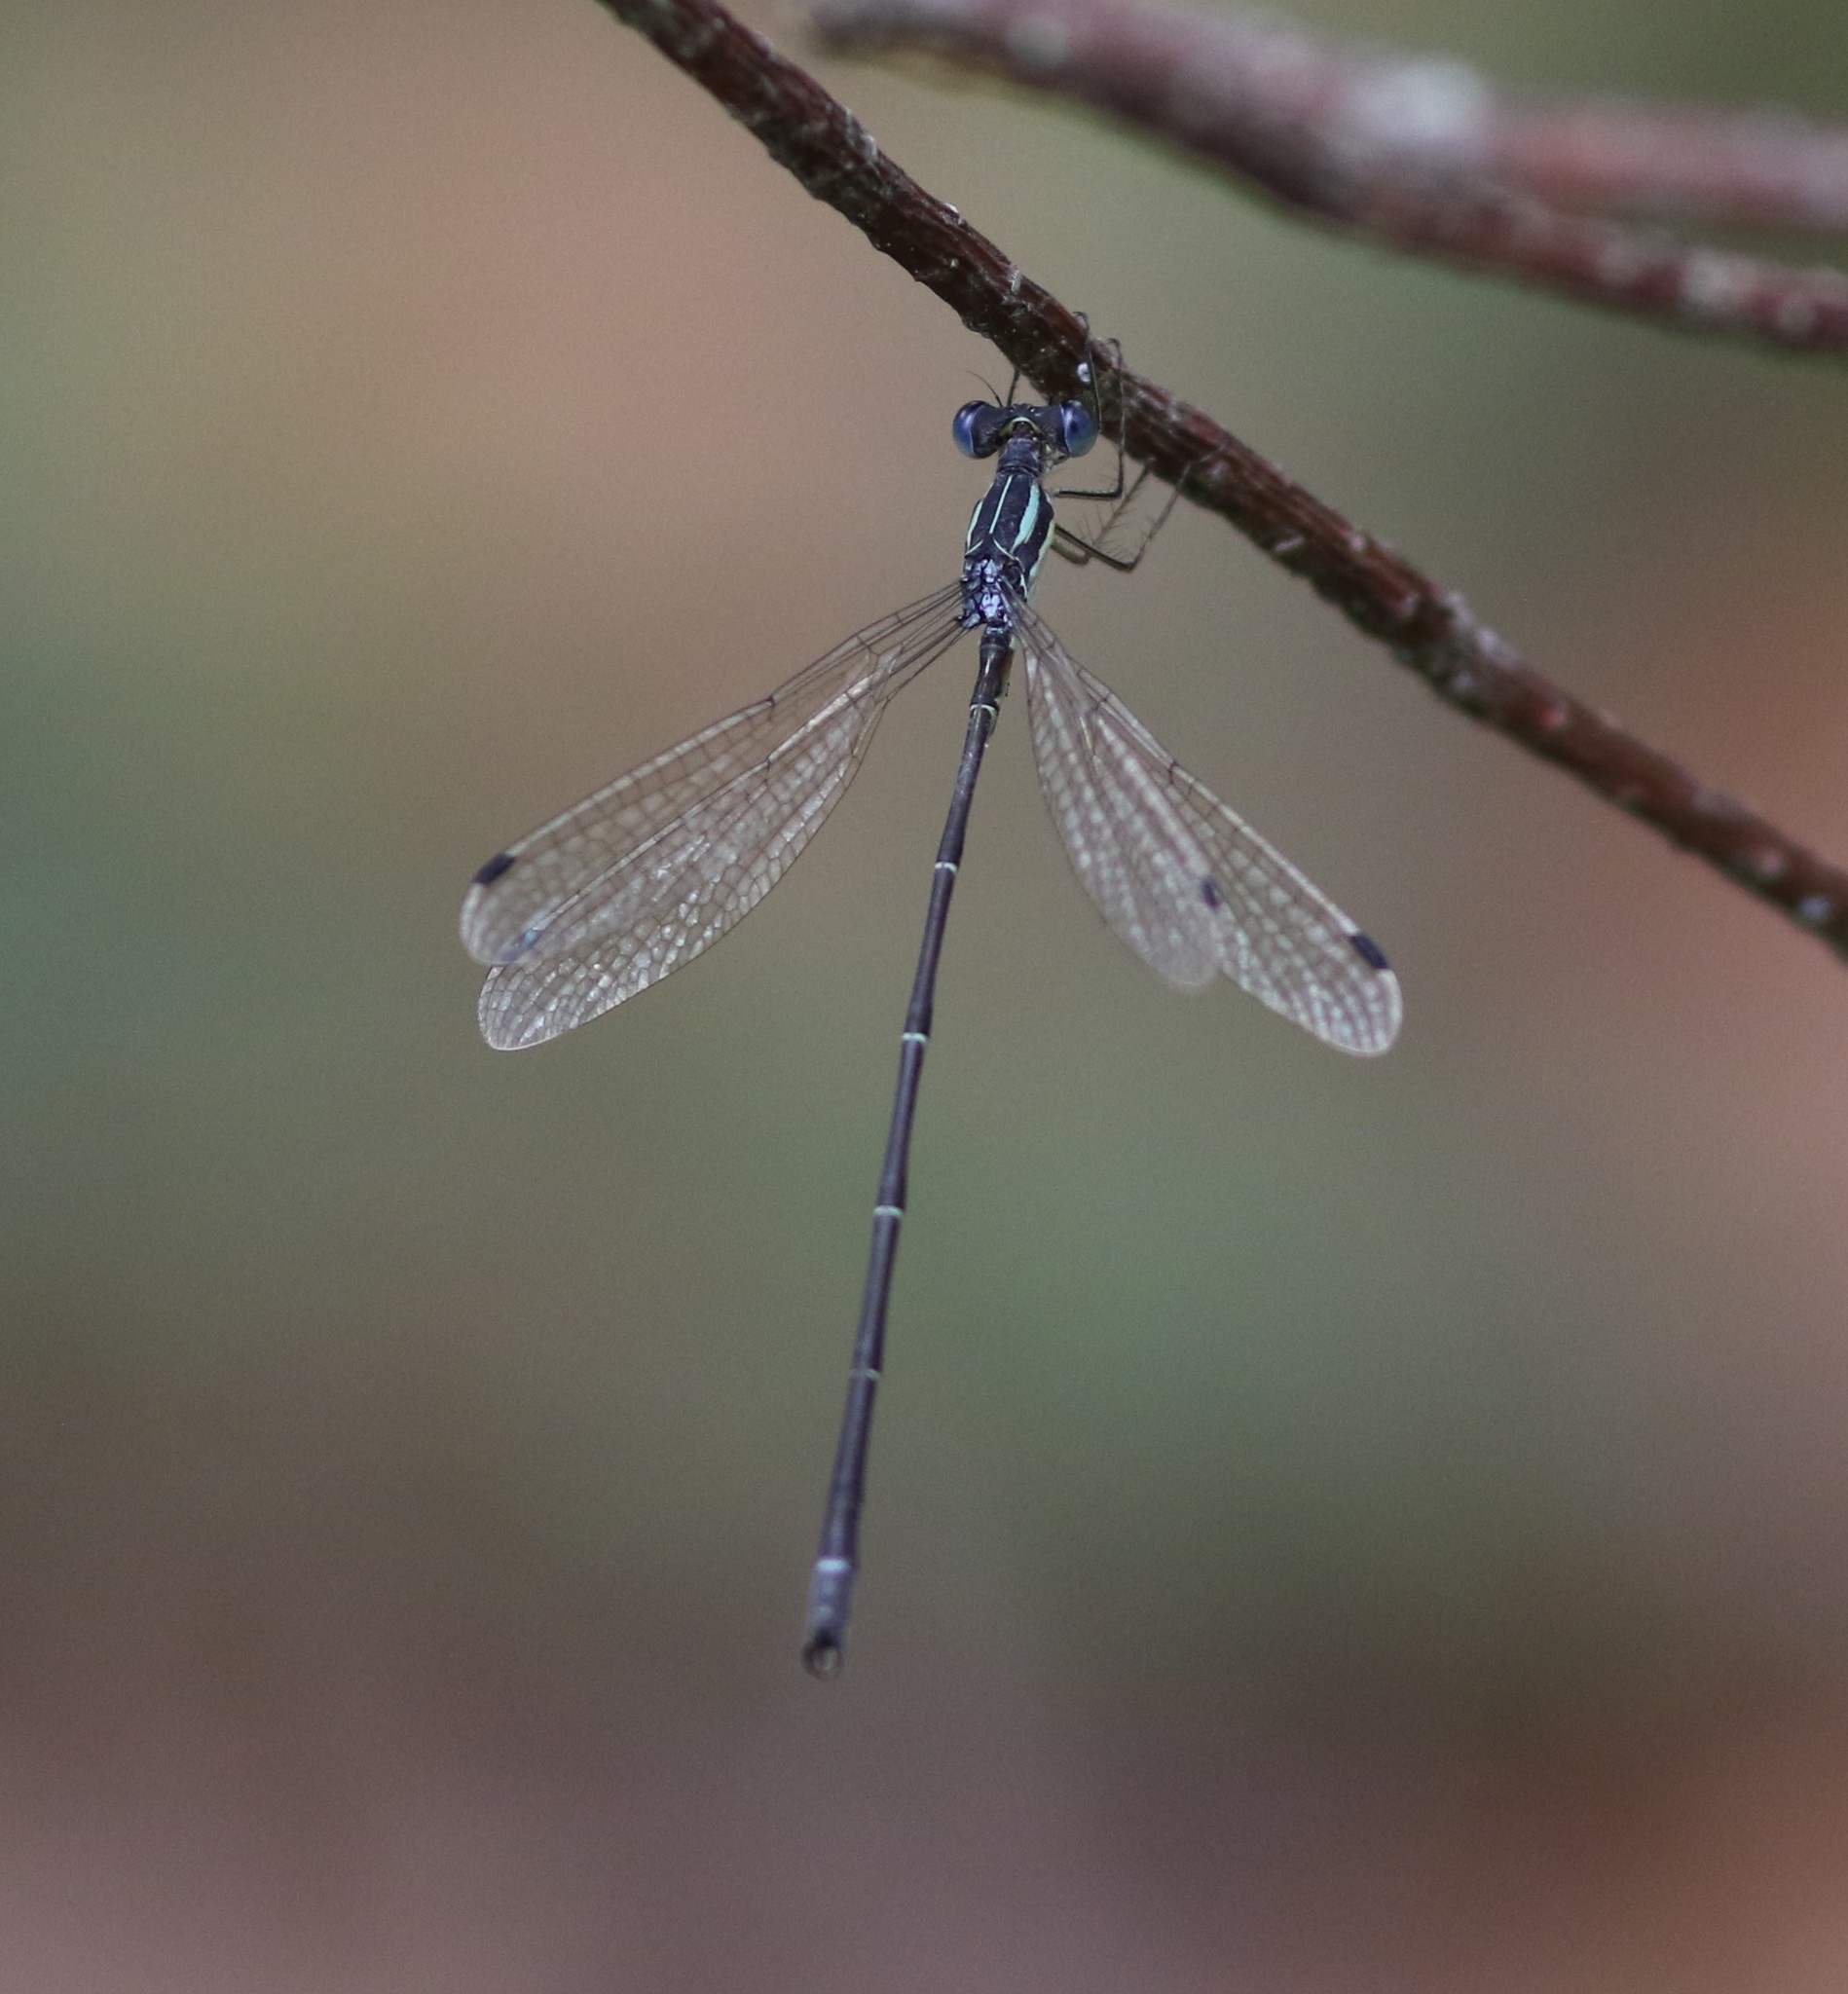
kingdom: Animalia
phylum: Arthropoda
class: Insecta
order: Odonata
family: Lestidae
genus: Lestes
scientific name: Lestes rectangularis
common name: Slender spreadwing
